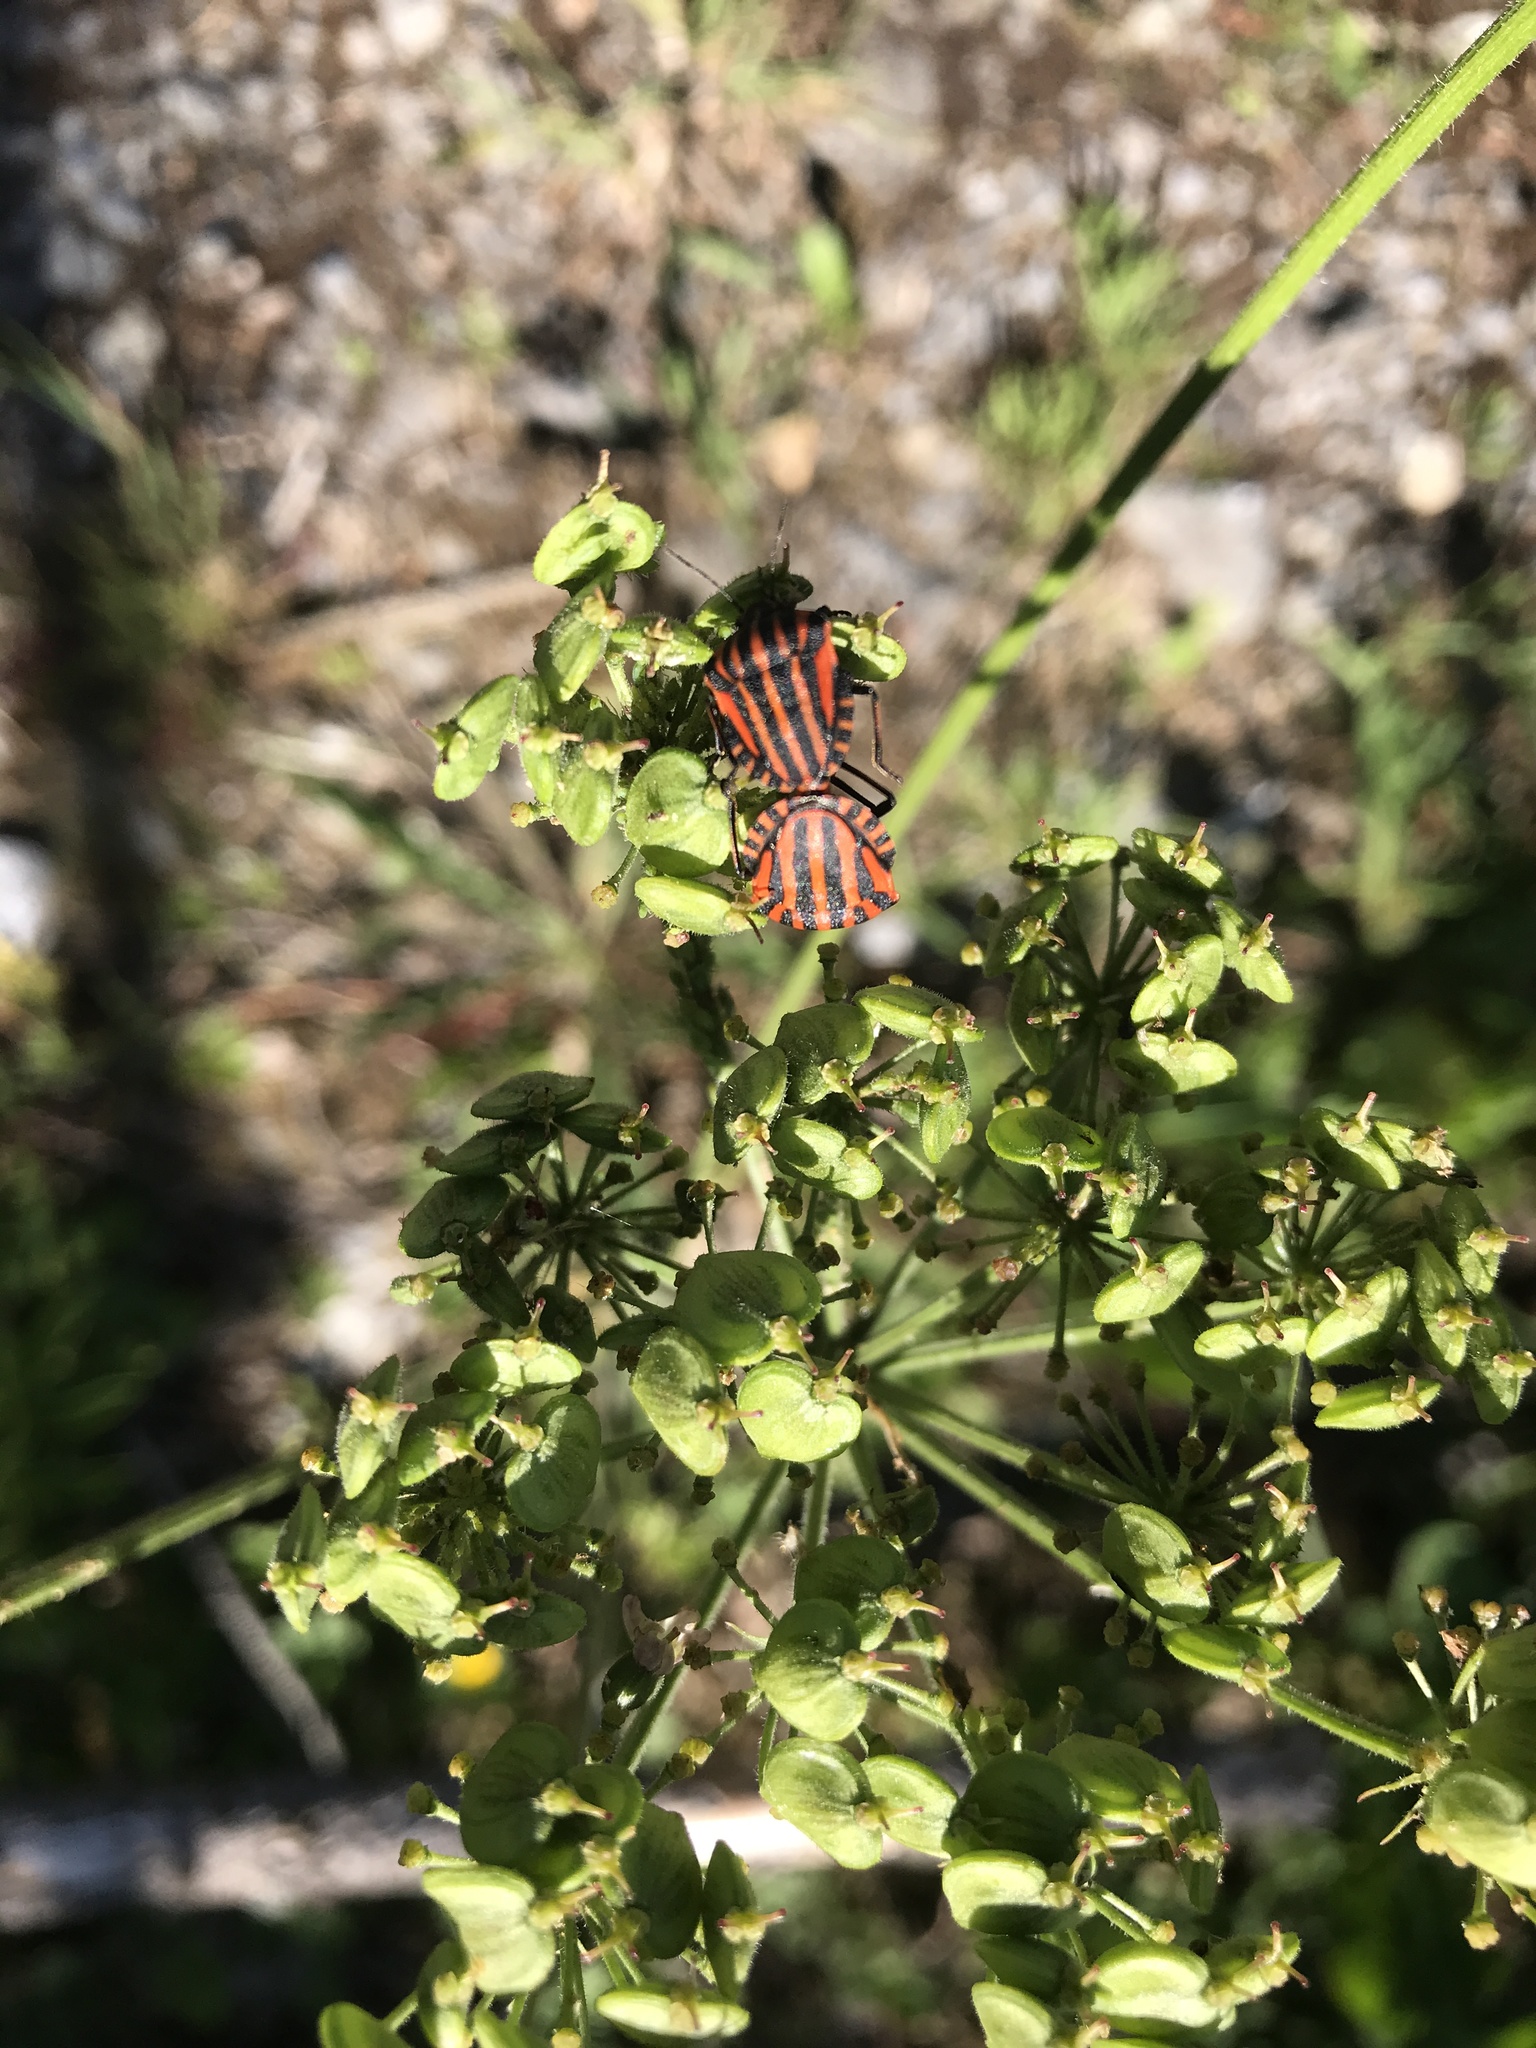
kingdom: Animalia
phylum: Arthropoda
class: Insecta
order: Hemiptera
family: Pentatomidae
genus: Graphosoma
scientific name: Graphosoma italicum
